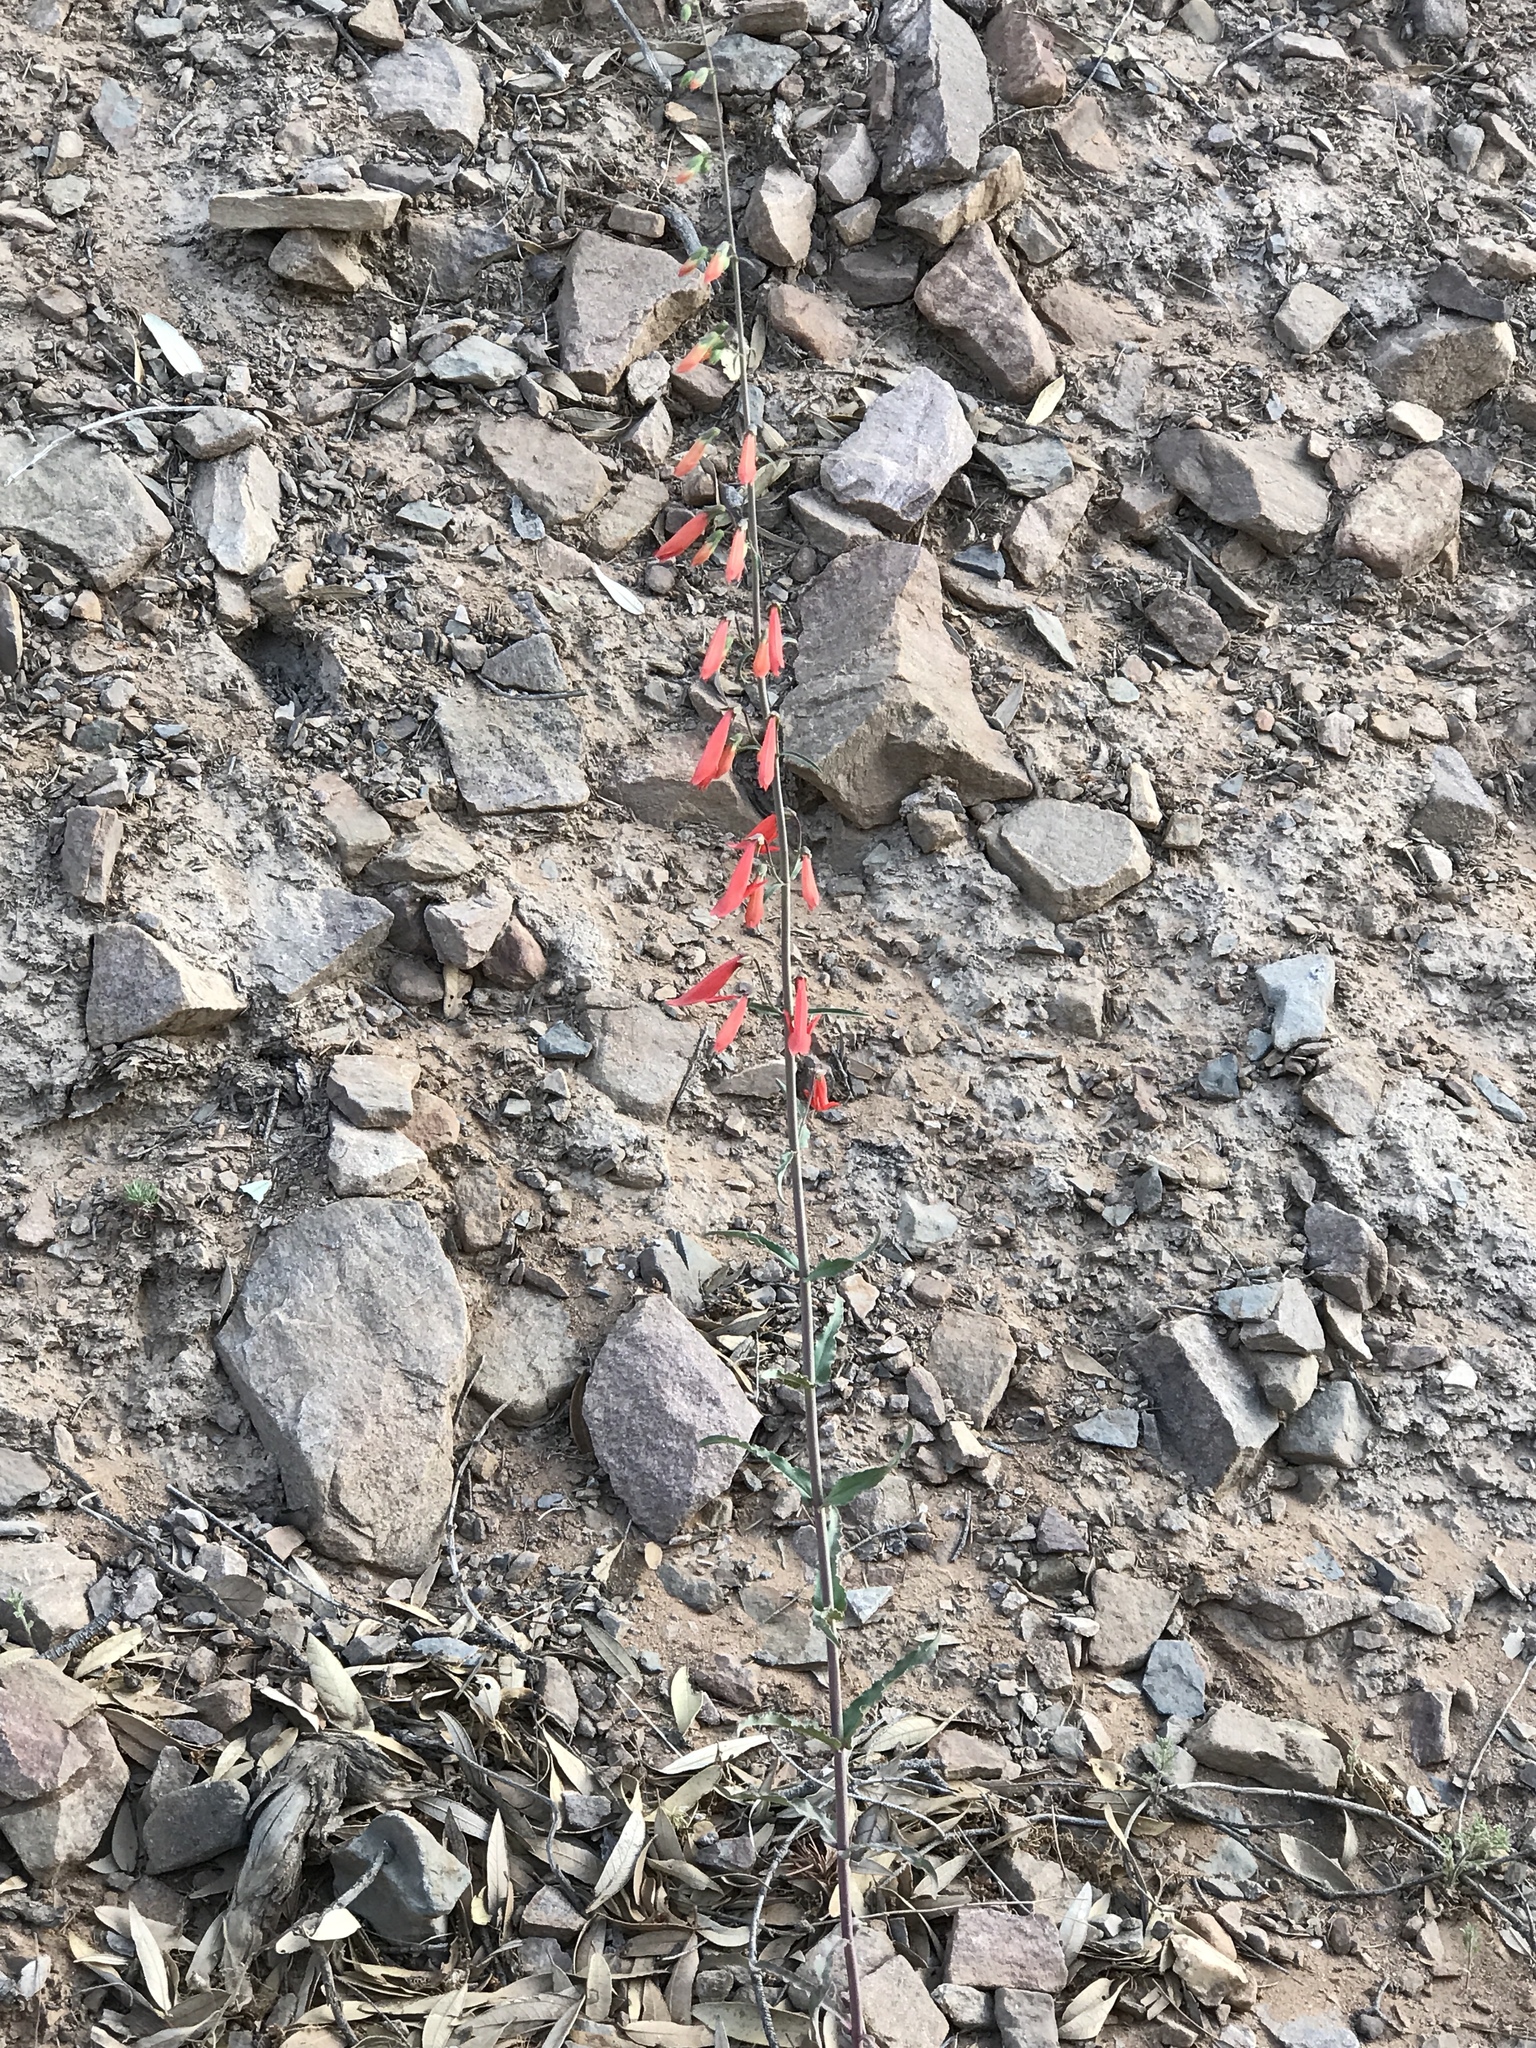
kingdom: Plantae
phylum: Tracheophyta
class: Magnoliopsida
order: Lamiales
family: Plantaginaceae
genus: Penstemon
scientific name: Penstemon barbatus
